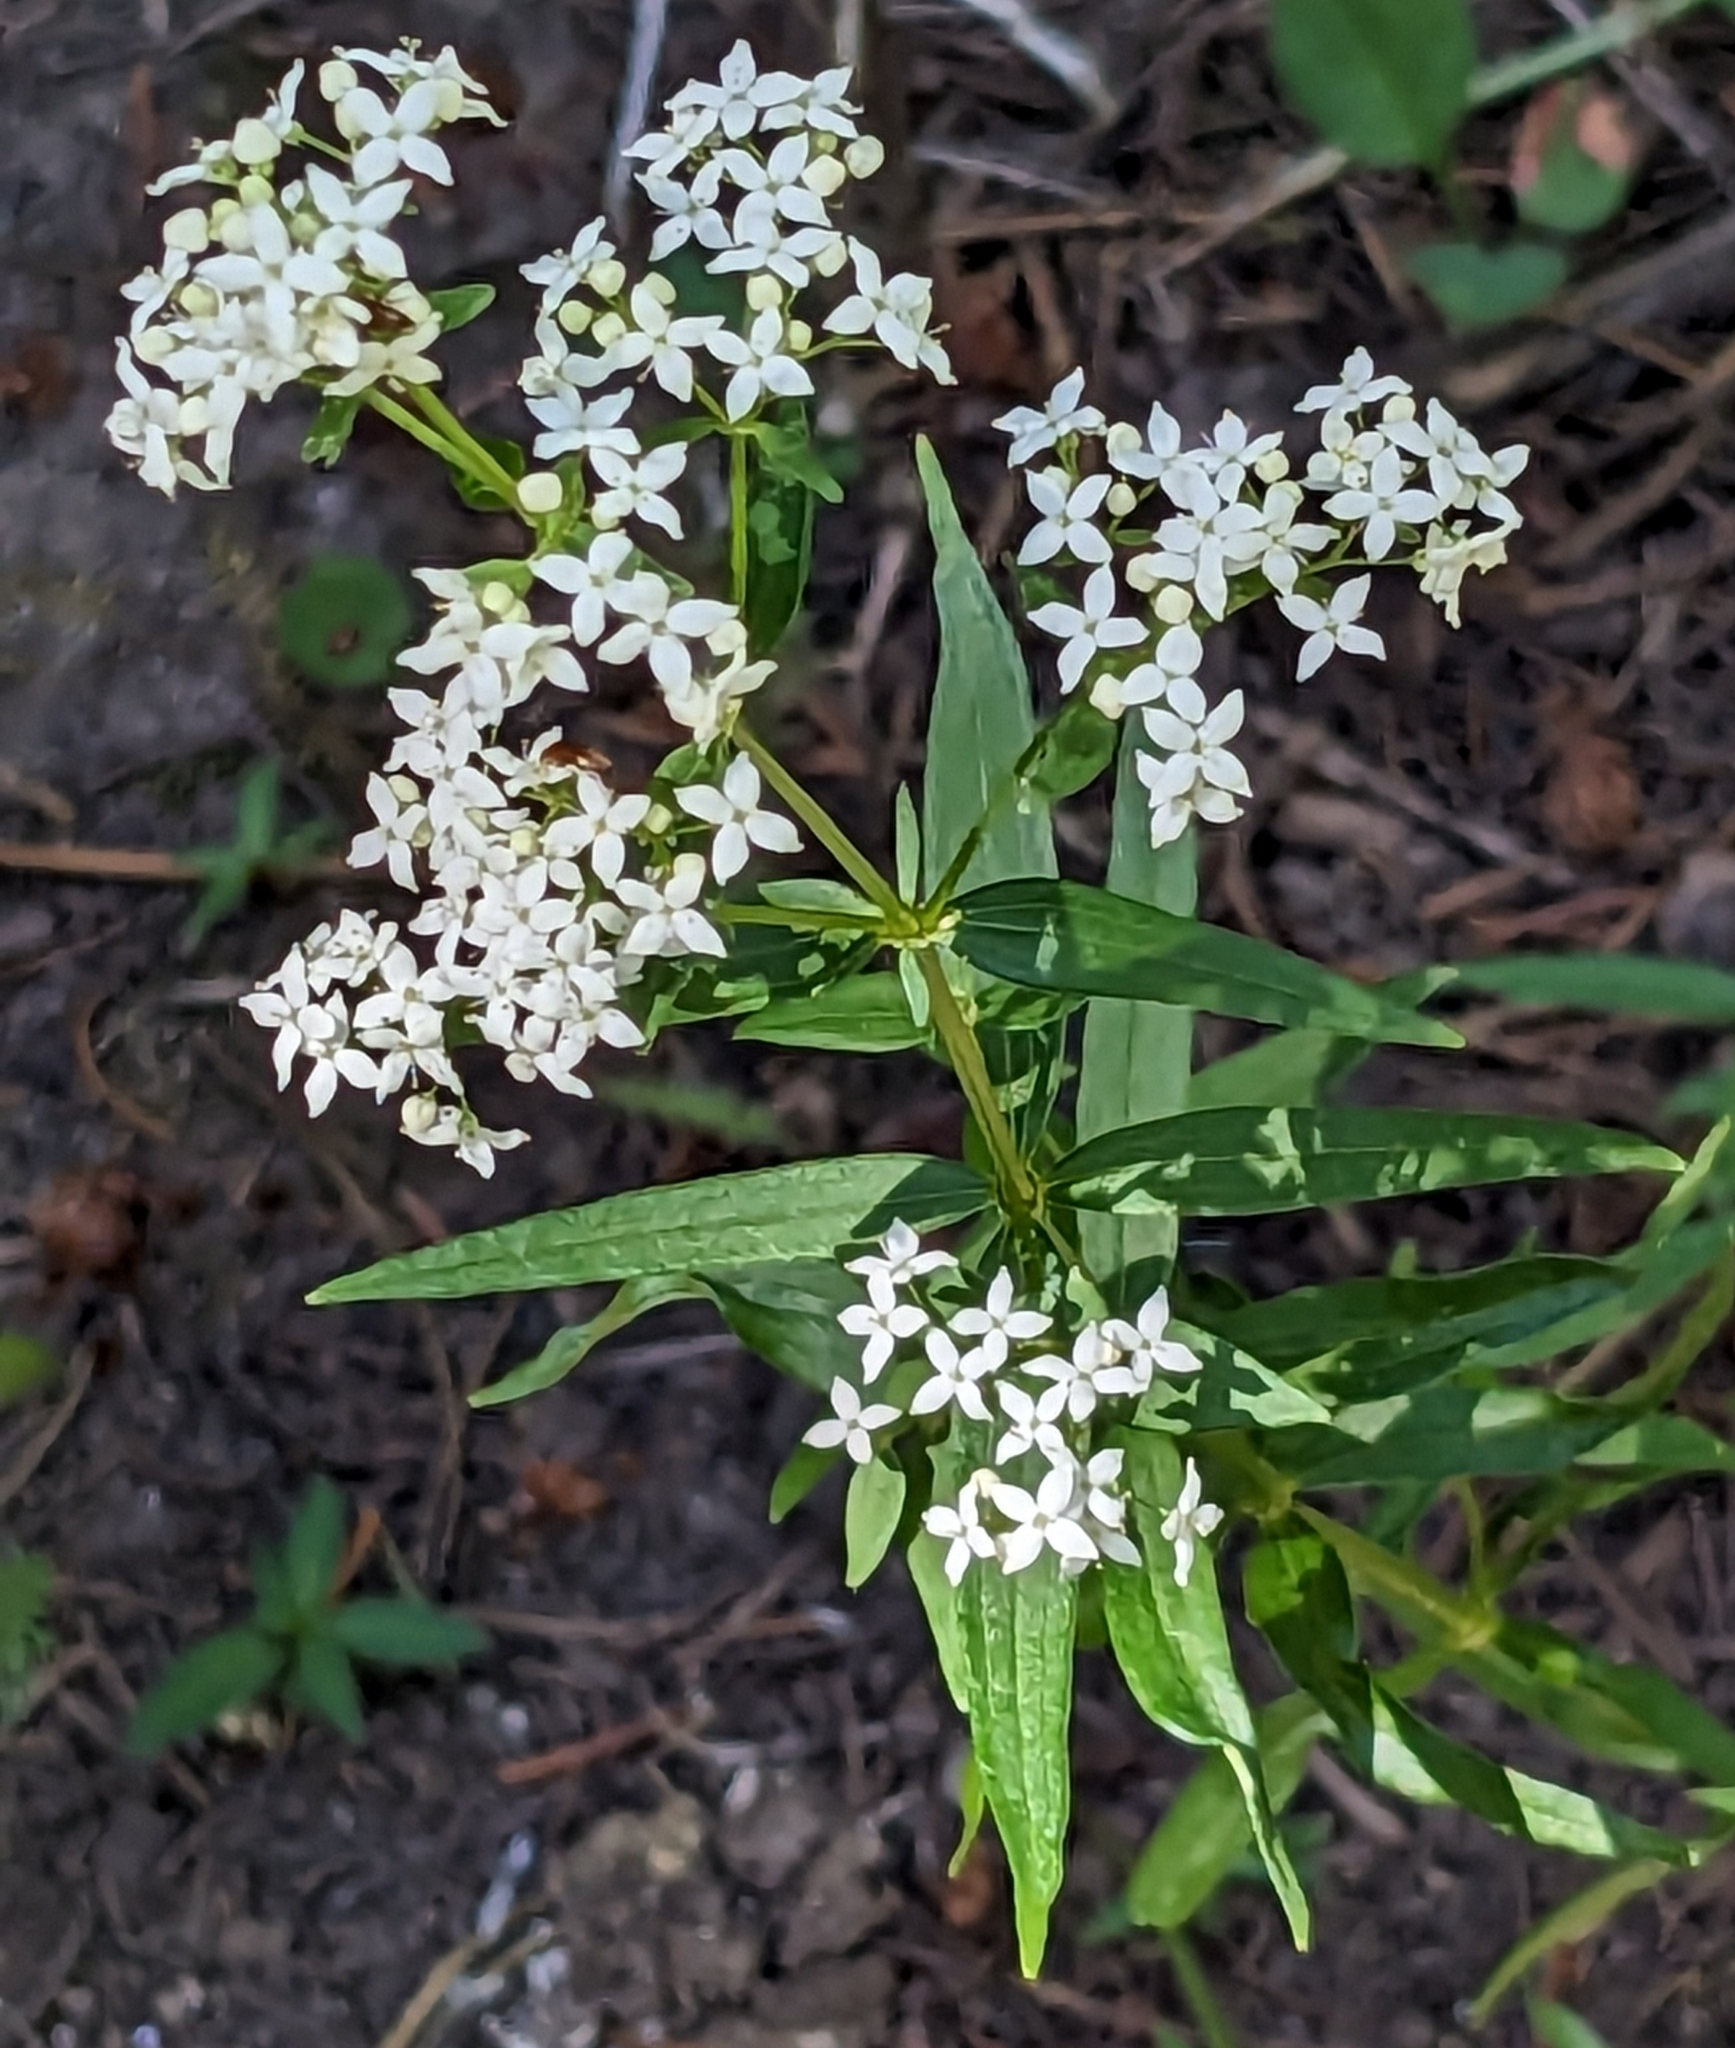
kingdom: Plantae
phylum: Tracheophyta
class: Magnoliopsida
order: Gentianales
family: Rubiaceae
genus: Galium
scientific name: Galium boreale
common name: Northern bedstraw
